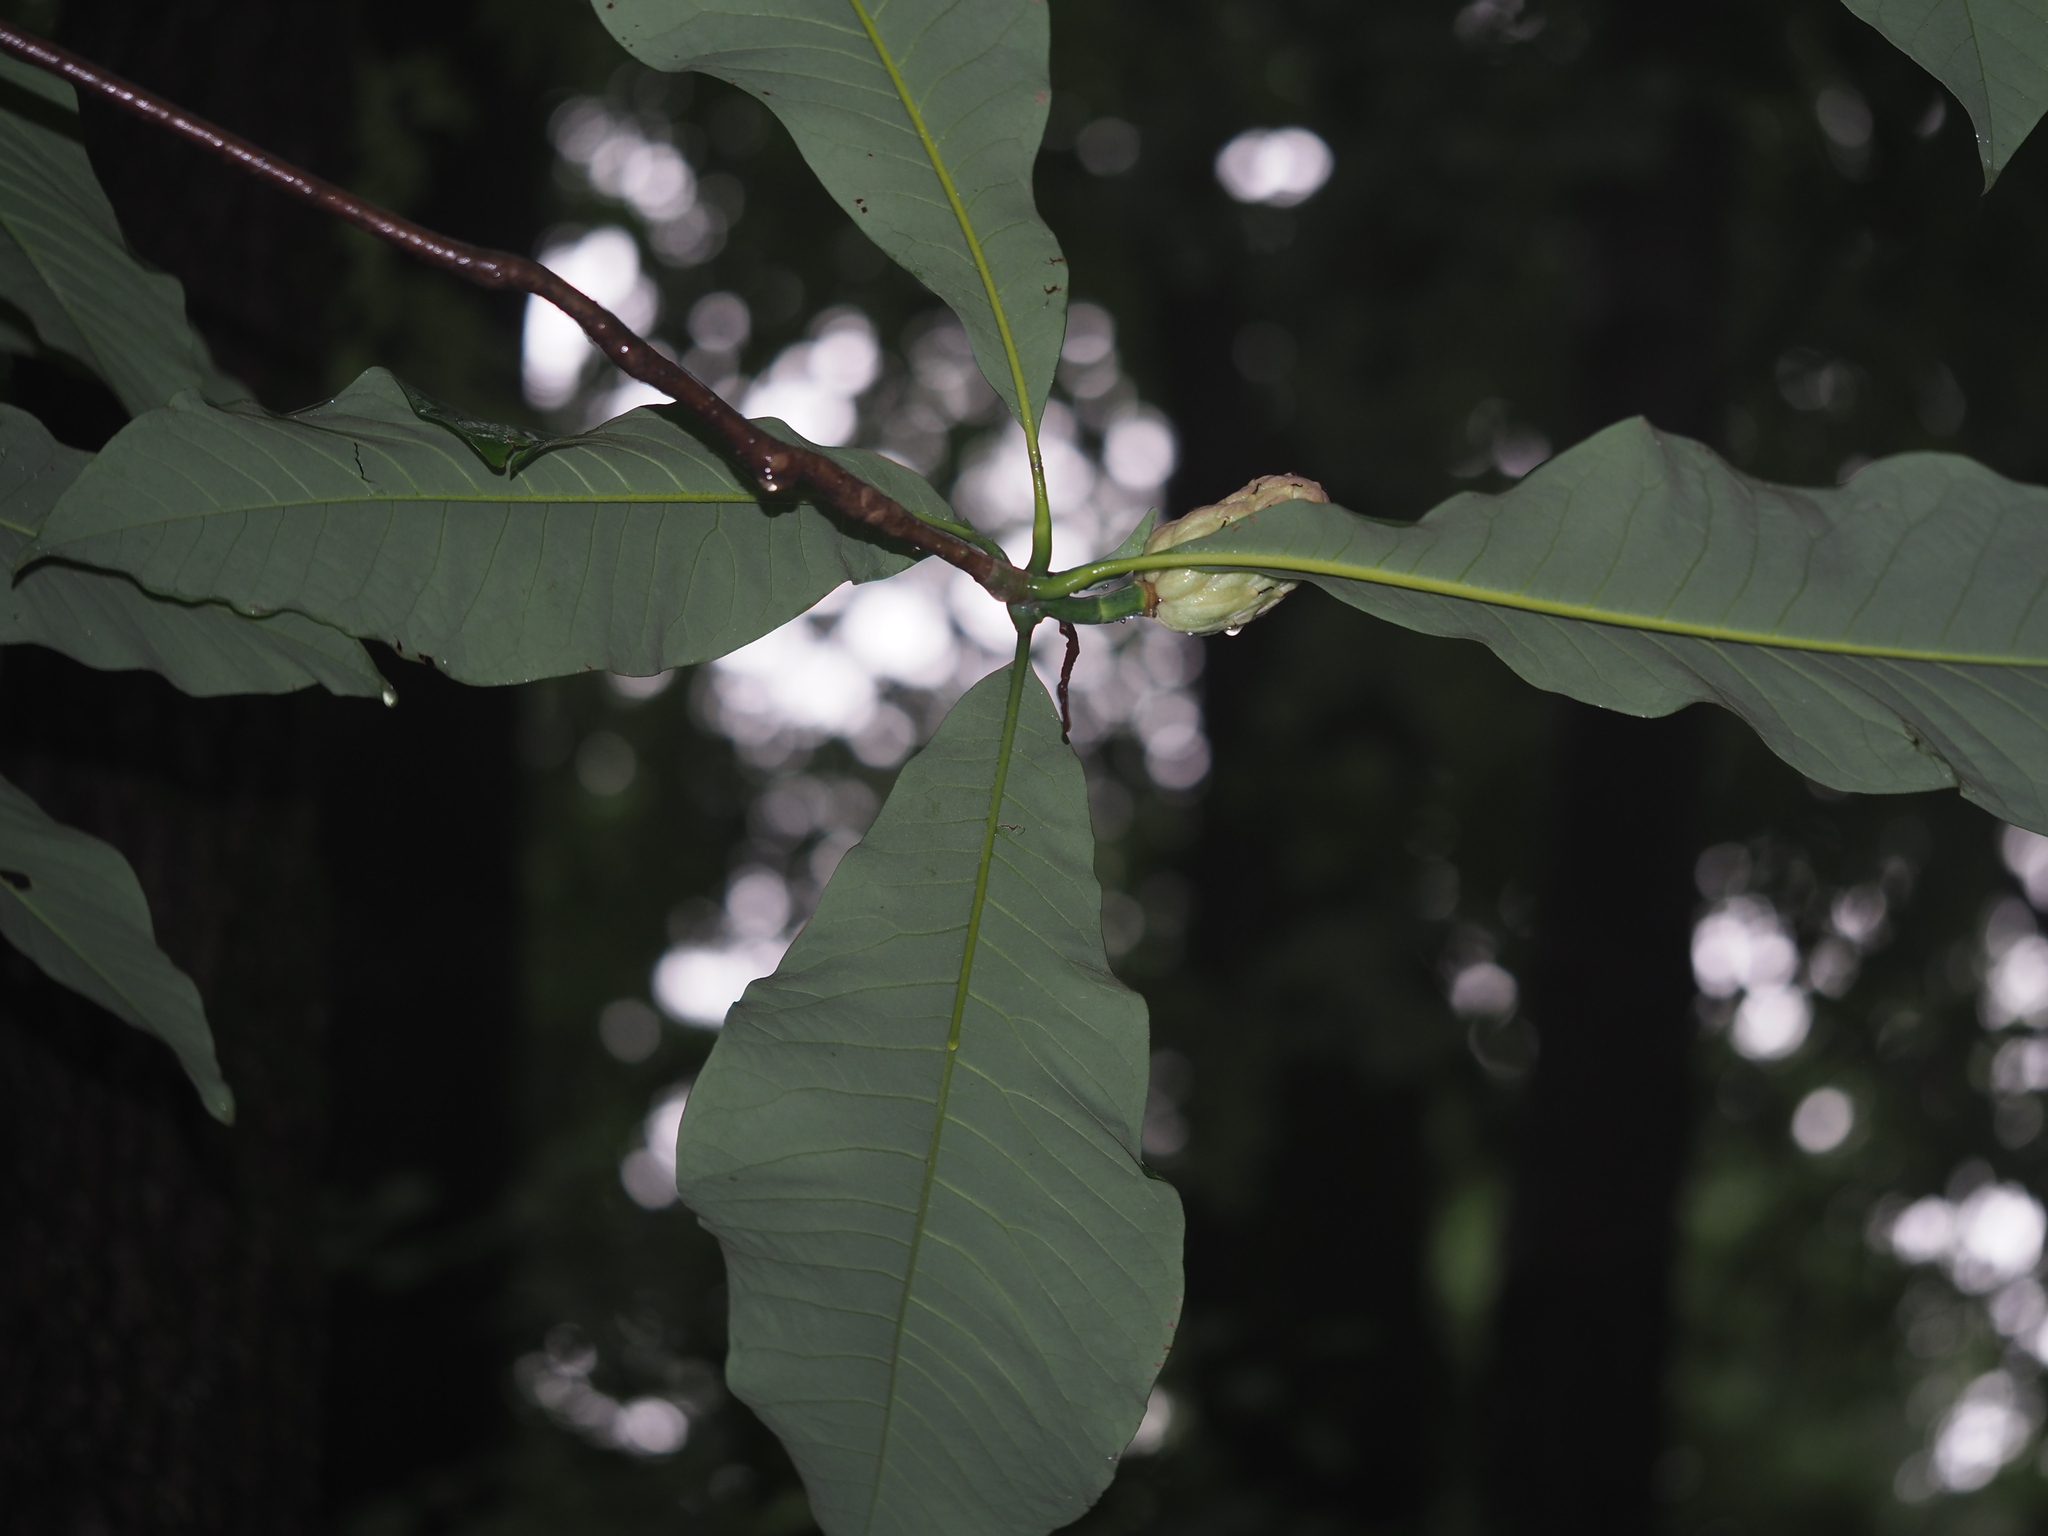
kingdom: Plantae
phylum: Tracheophyta
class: Magnoliopsida
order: Magnoliales
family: Magnoliaceae
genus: Magnolia
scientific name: Magnolia tripetala
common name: Umbrella magnolia
